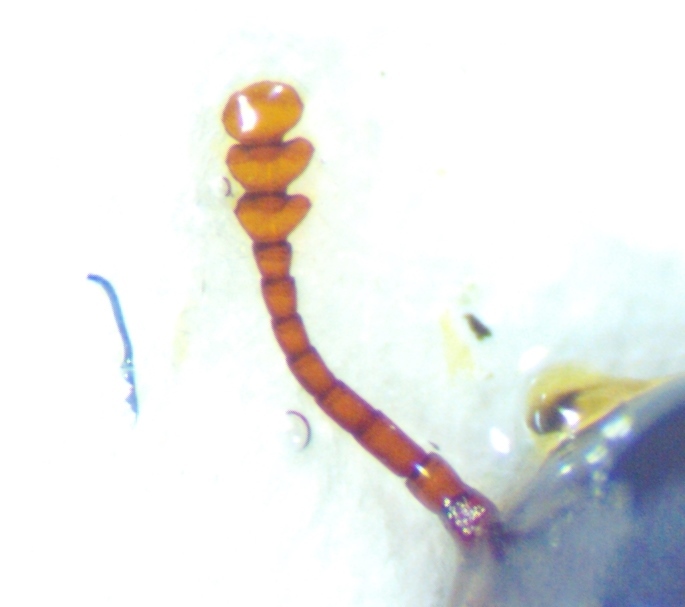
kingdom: Animalia
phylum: Arthropoda
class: Insecta
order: Coleoptera
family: Zopheridae
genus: Hyporhagus
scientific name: Hyporhagus punctulatus
